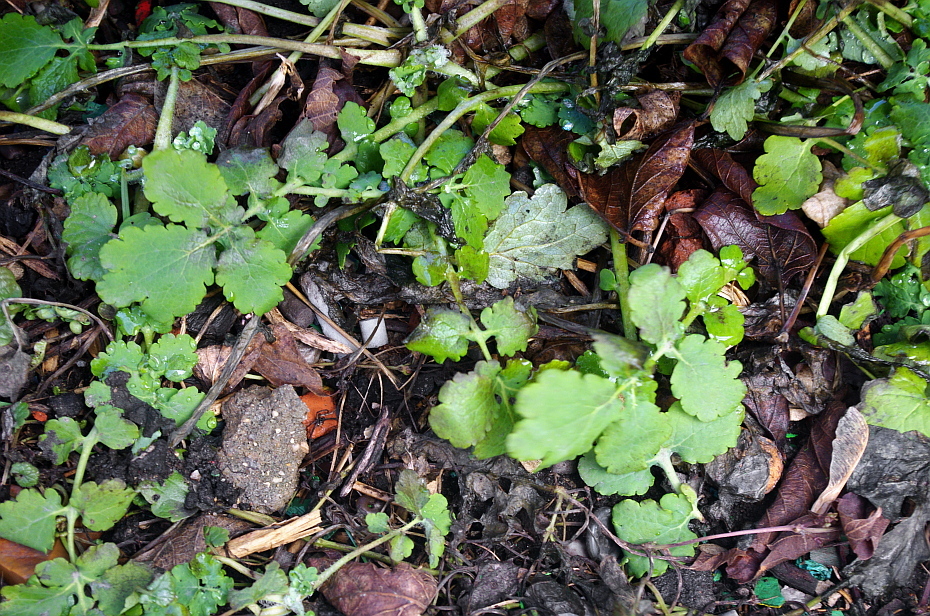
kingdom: Plantae
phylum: Tracheophyta
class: Magnoliopsida
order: Ranunculales
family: Papaveraceae
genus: Chelidonium
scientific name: Chelidonium majus
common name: Greater celandine
